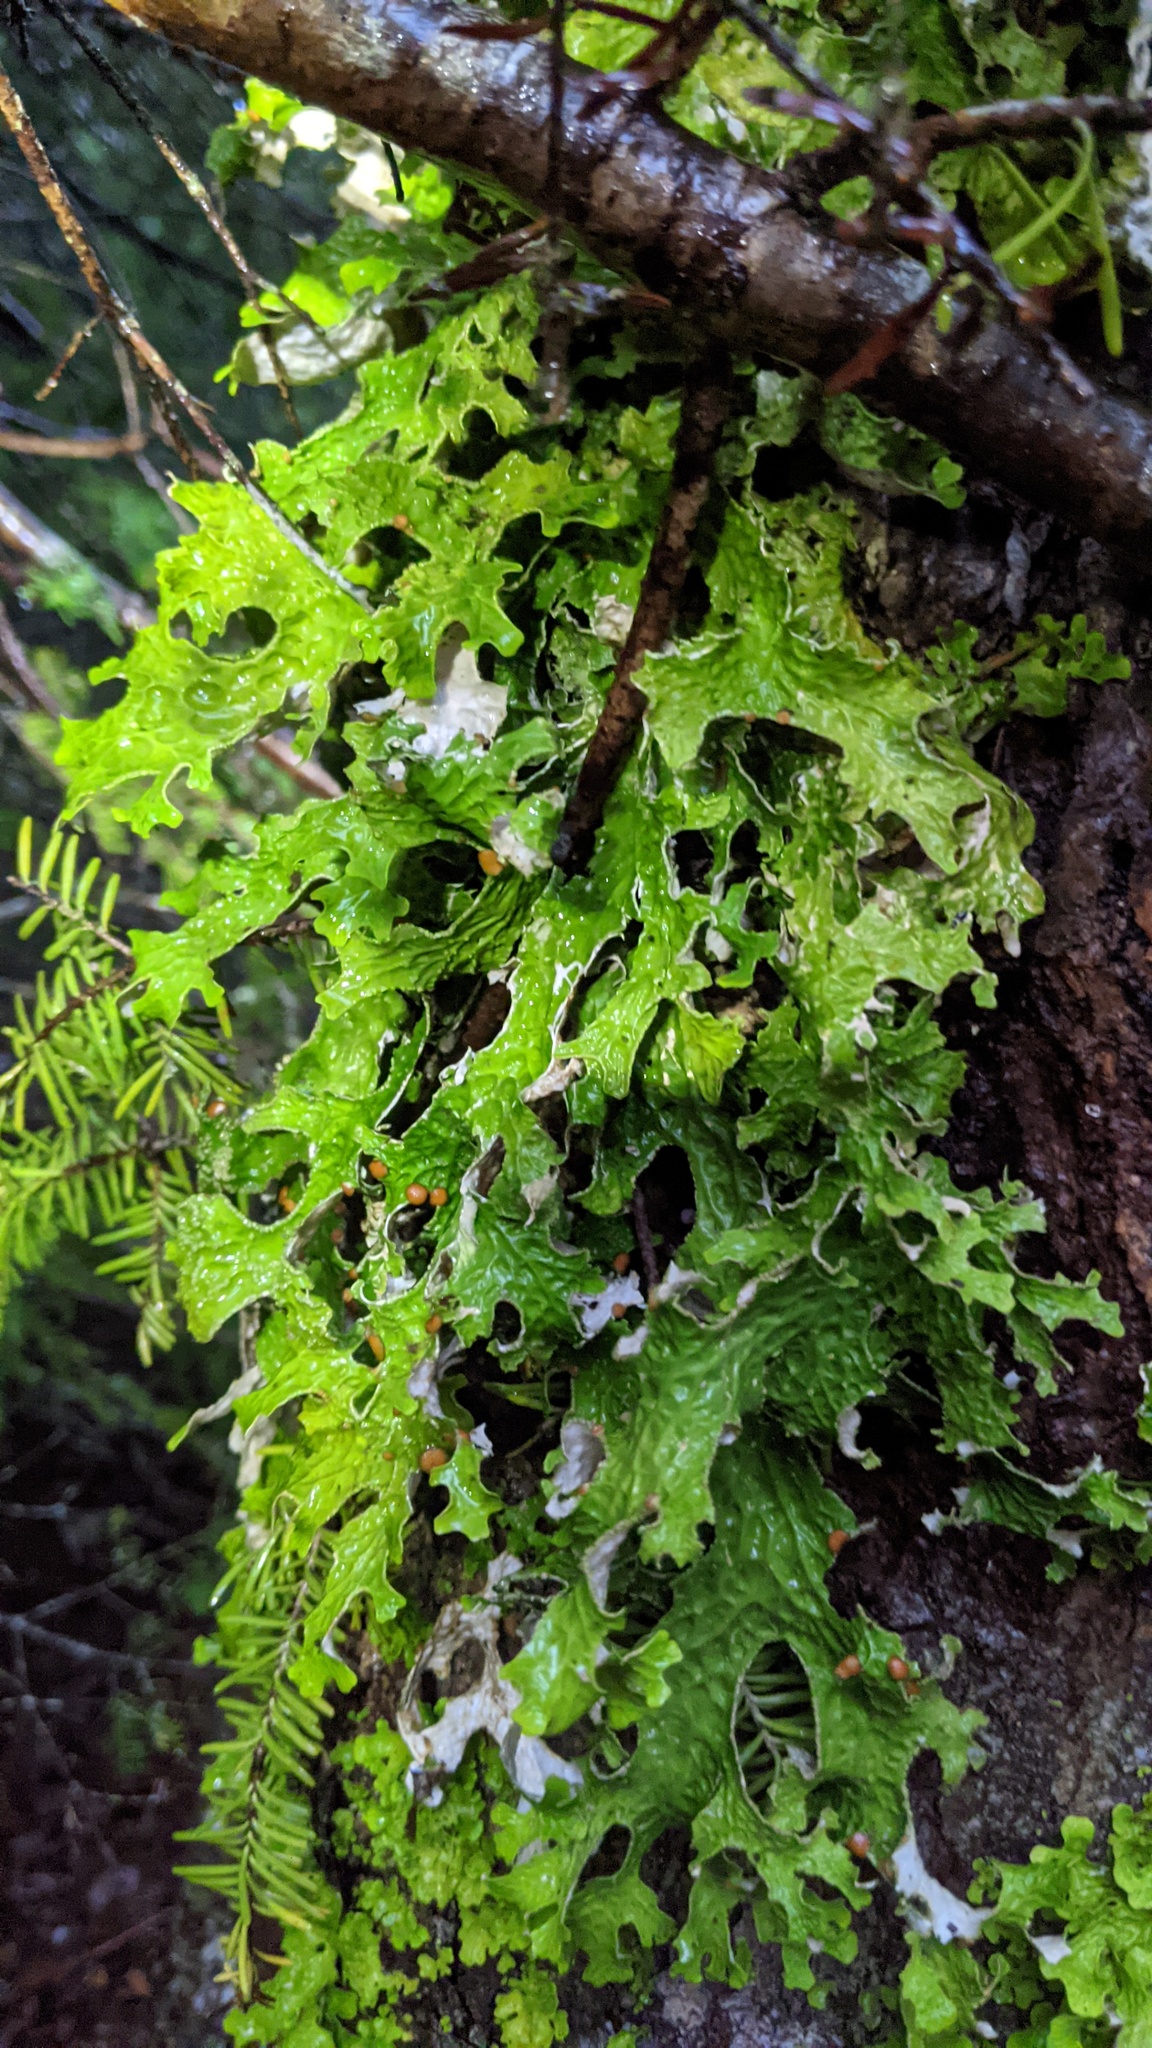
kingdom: Fungi
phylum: Ascomycota
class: Lecanoromycetes
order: Peltigerales
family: Lobariaceae
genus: Lobaria
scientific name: Lobaria pulmonaria
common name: Lungwort
